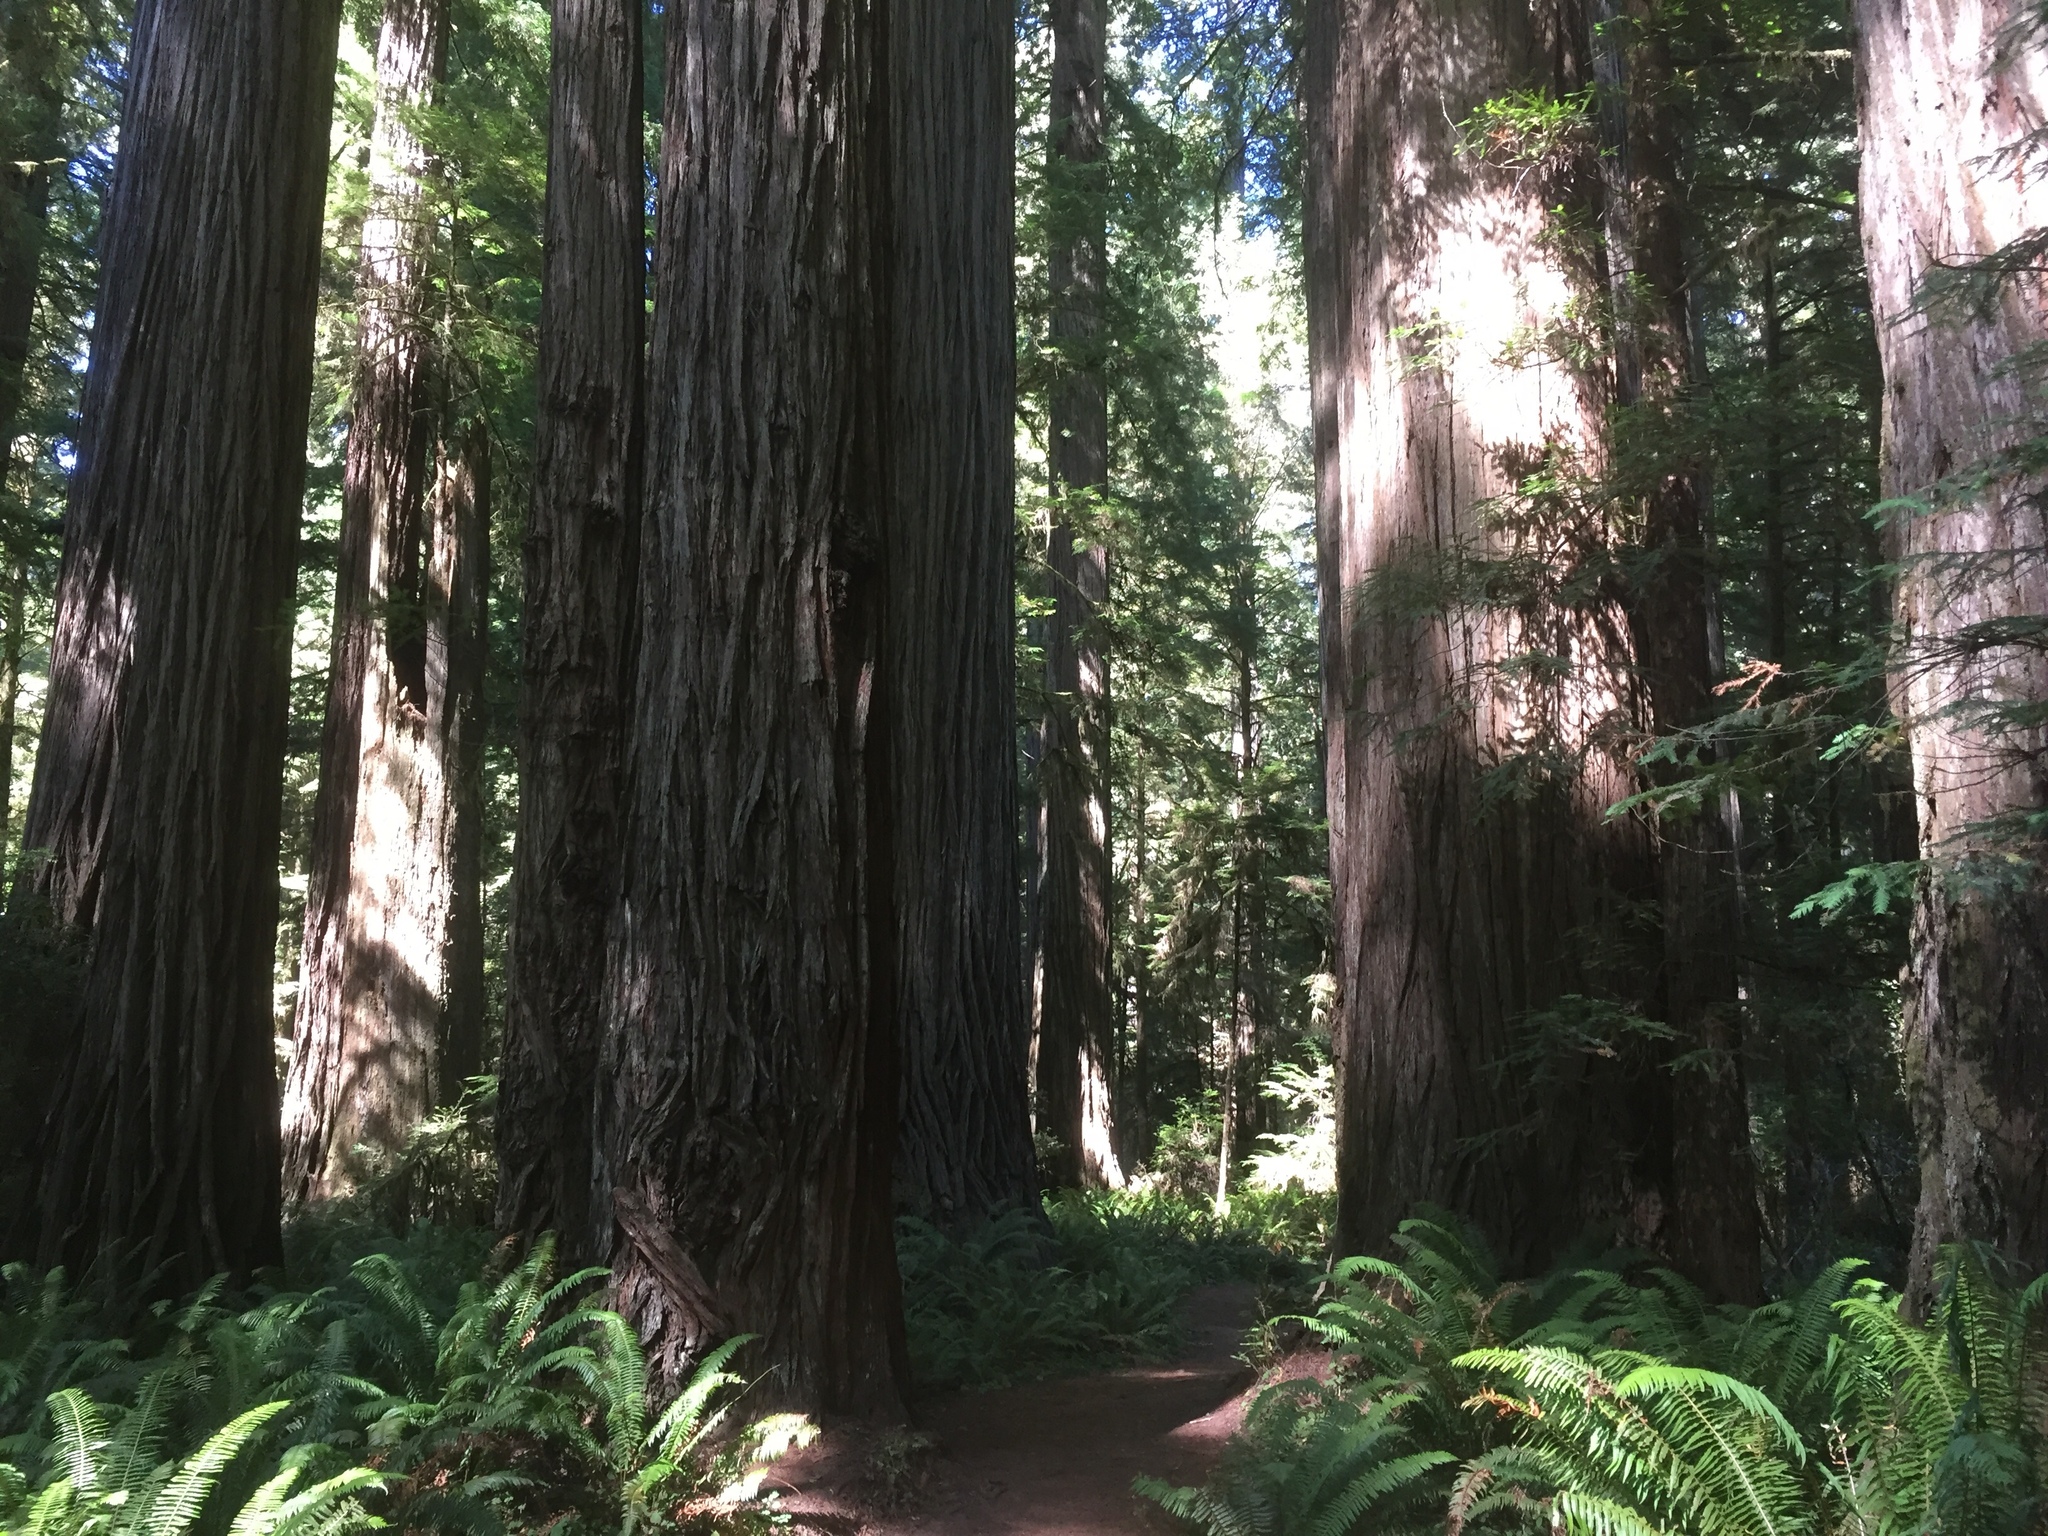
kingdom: Plantae
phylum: Tracheophyta
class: Pinopsida
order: Pinales
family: Cupressaceae
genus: Sequoia
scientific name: Sequoia sempervirens
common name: Coast redwood
